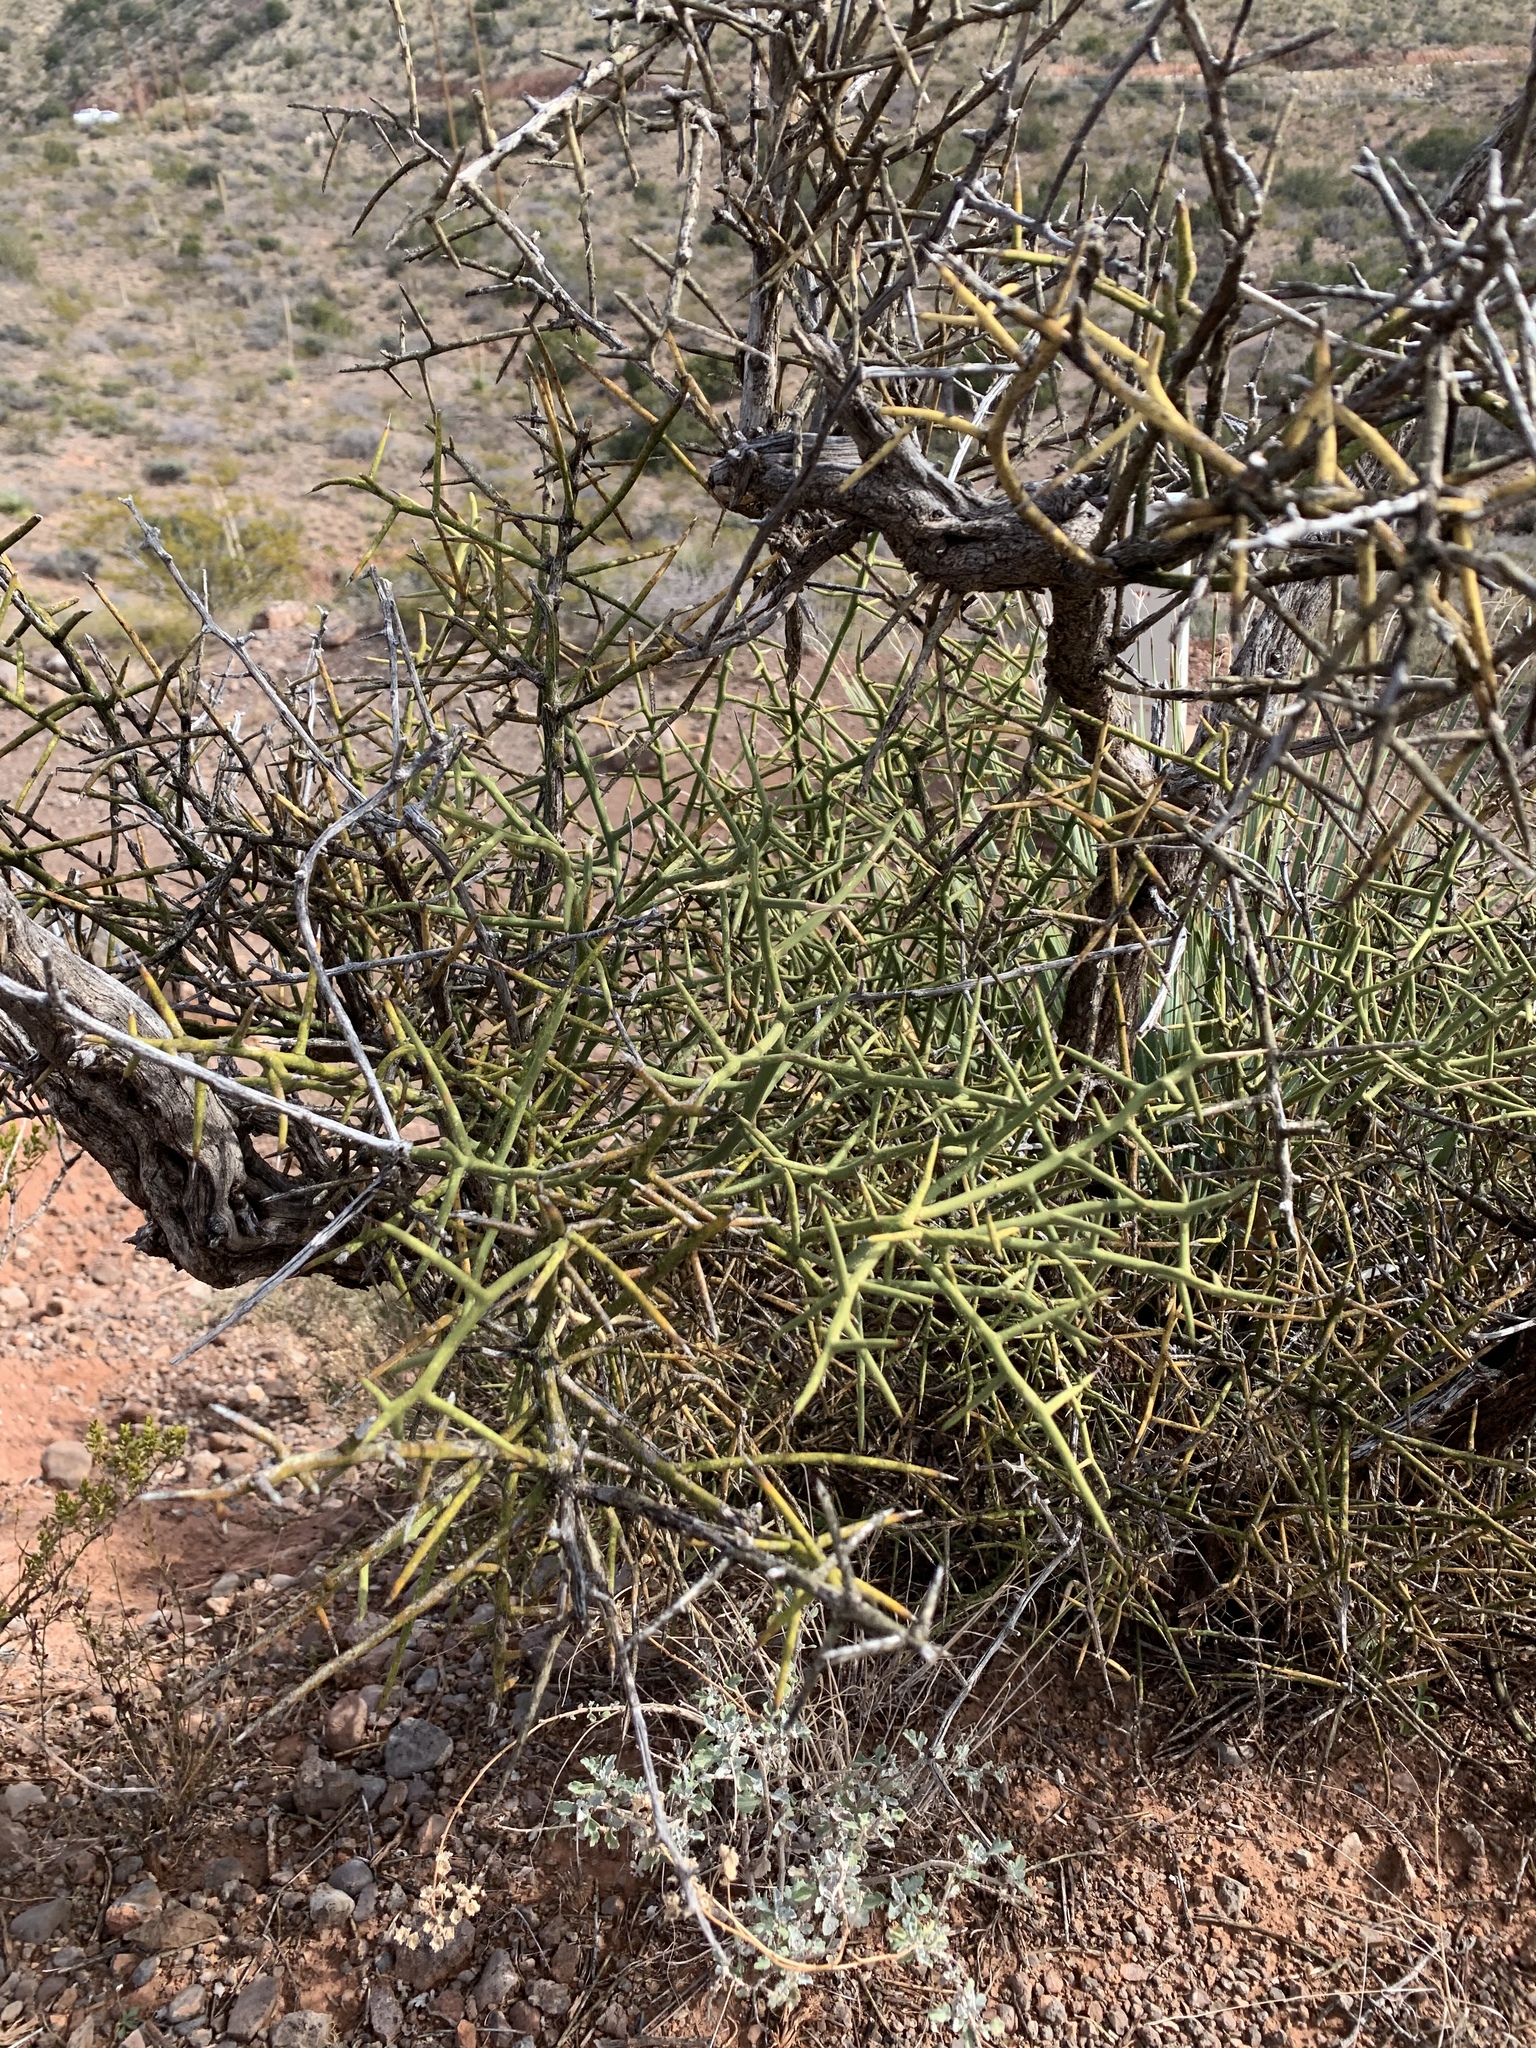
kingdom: Plantae
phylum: Tracheophyta
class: Magnoliopsida
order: Brassicales
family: Koeberliniaceae
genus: Koeberlinia
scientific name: Koeberlinia spinosa
